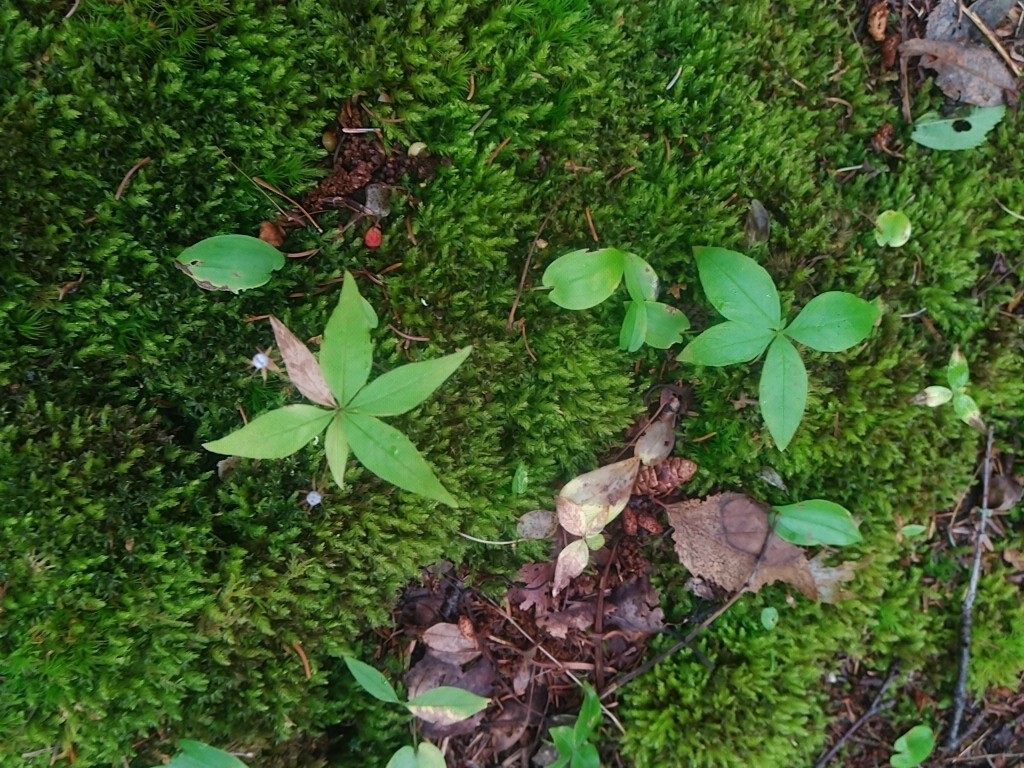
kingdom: Plantae
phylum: Tracheophyta
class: Magnoliopsida
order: Ericales
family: Primulaceae
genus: Lysimachia
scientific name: Lysimachia borealis
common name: American starflower
